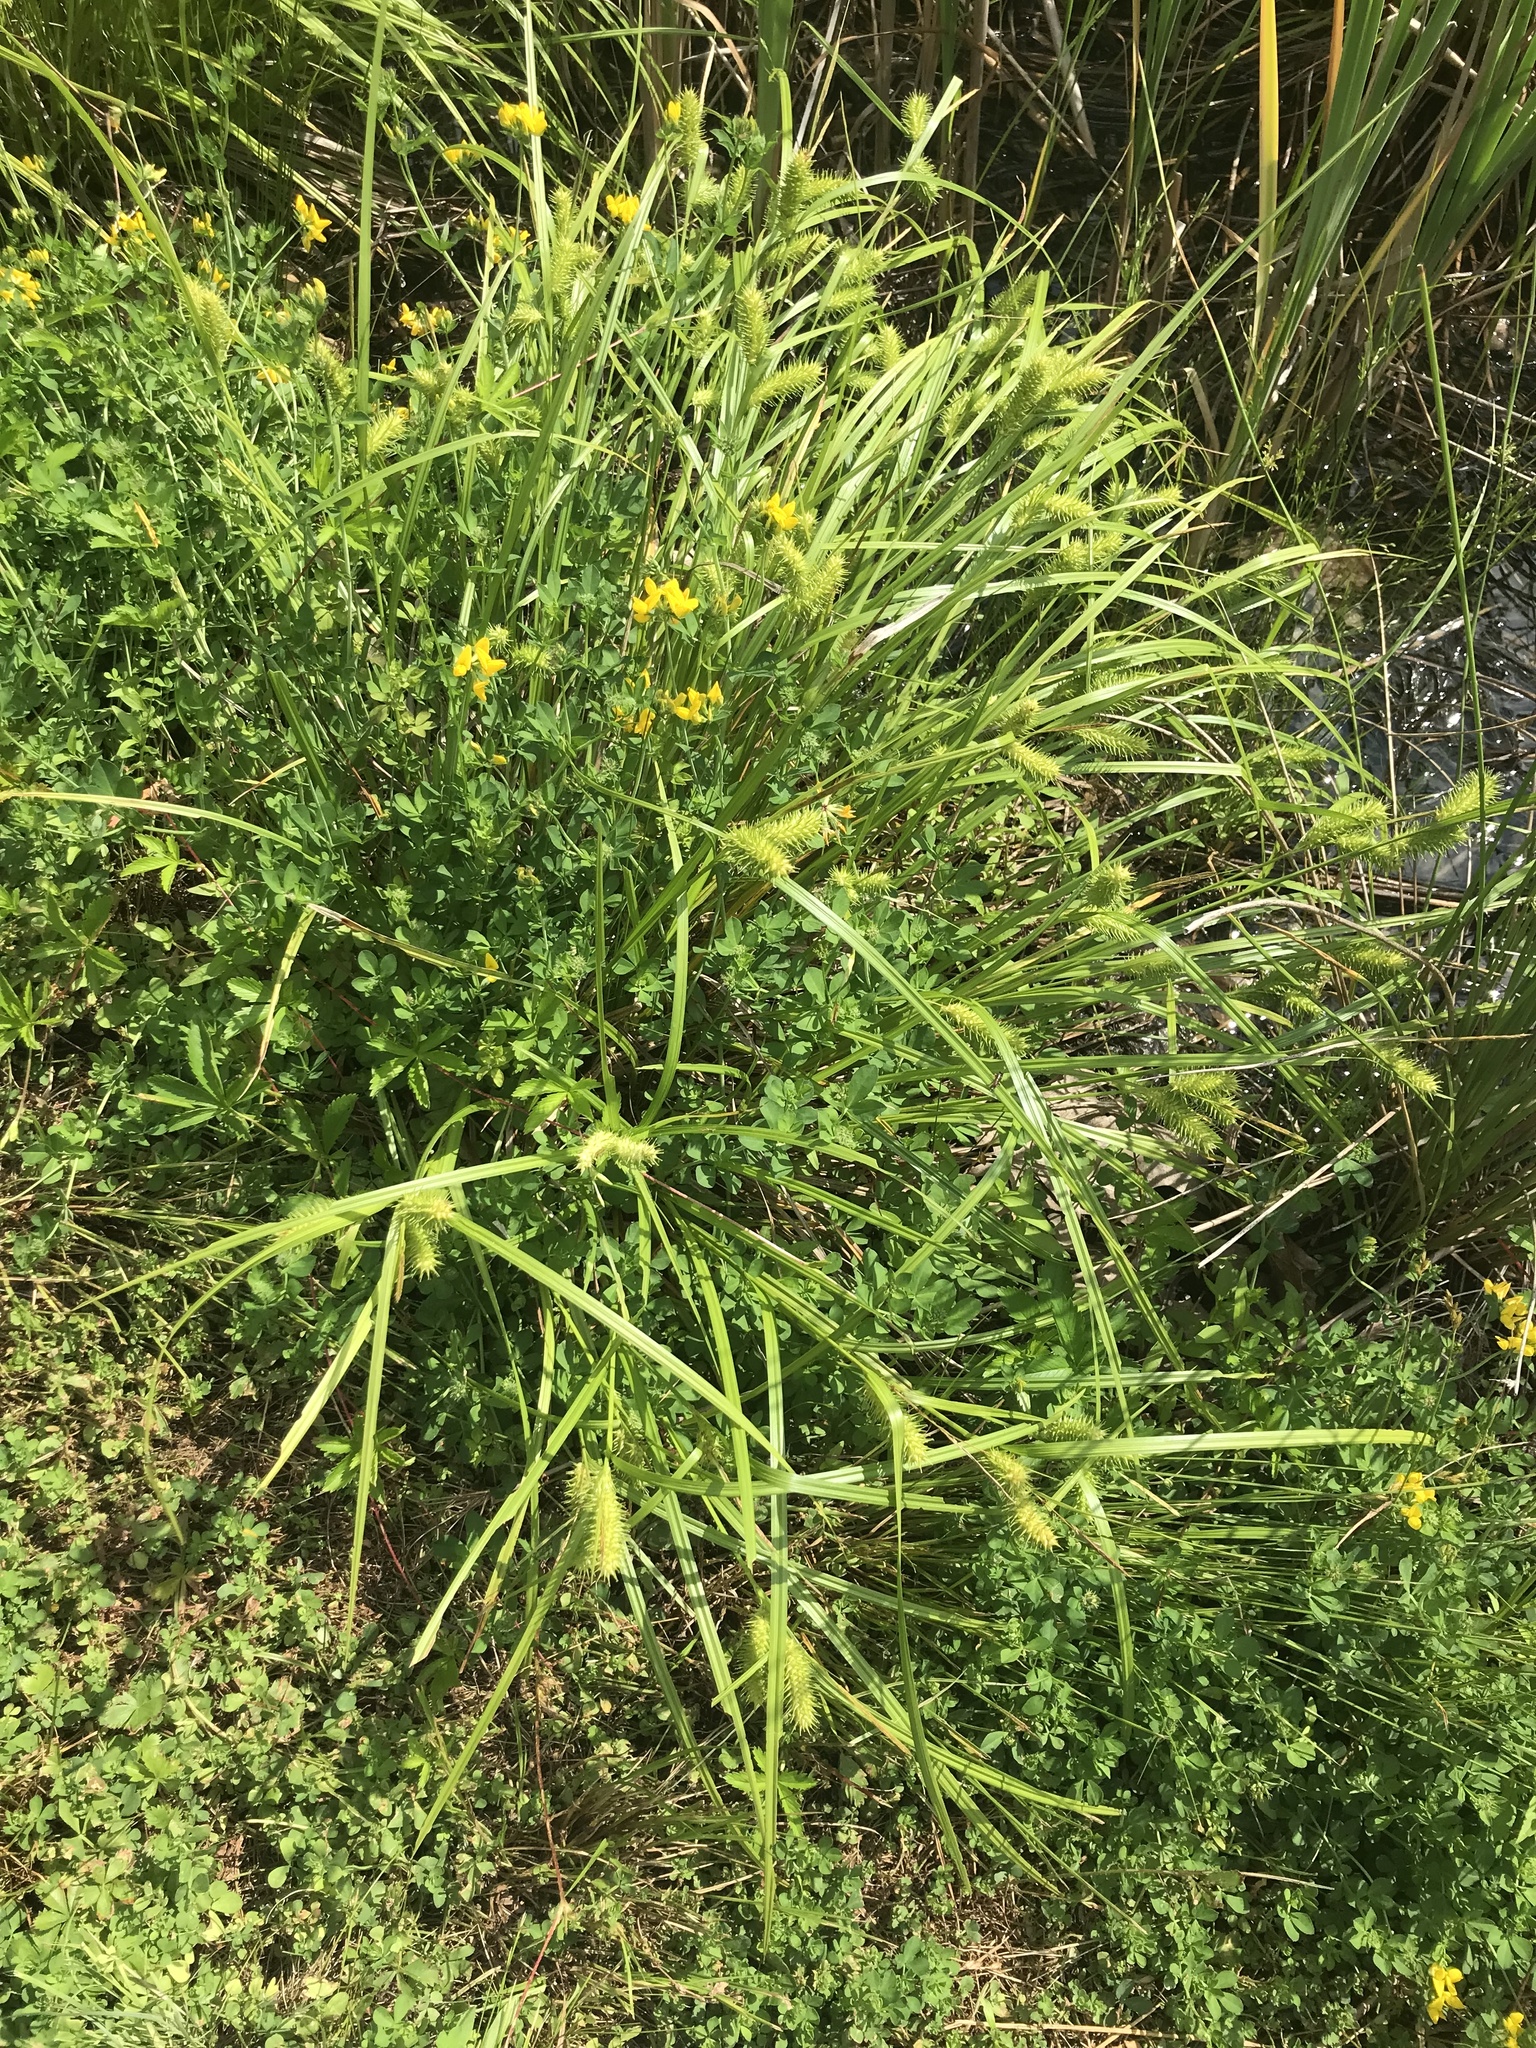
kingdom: Plantae
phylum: Tracheophyta
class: Magnoliopsida
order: Fabales
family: Fabaceae
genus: Lotus
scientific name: Lotus corniculatus
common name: Common bird's-foot-trefoil
